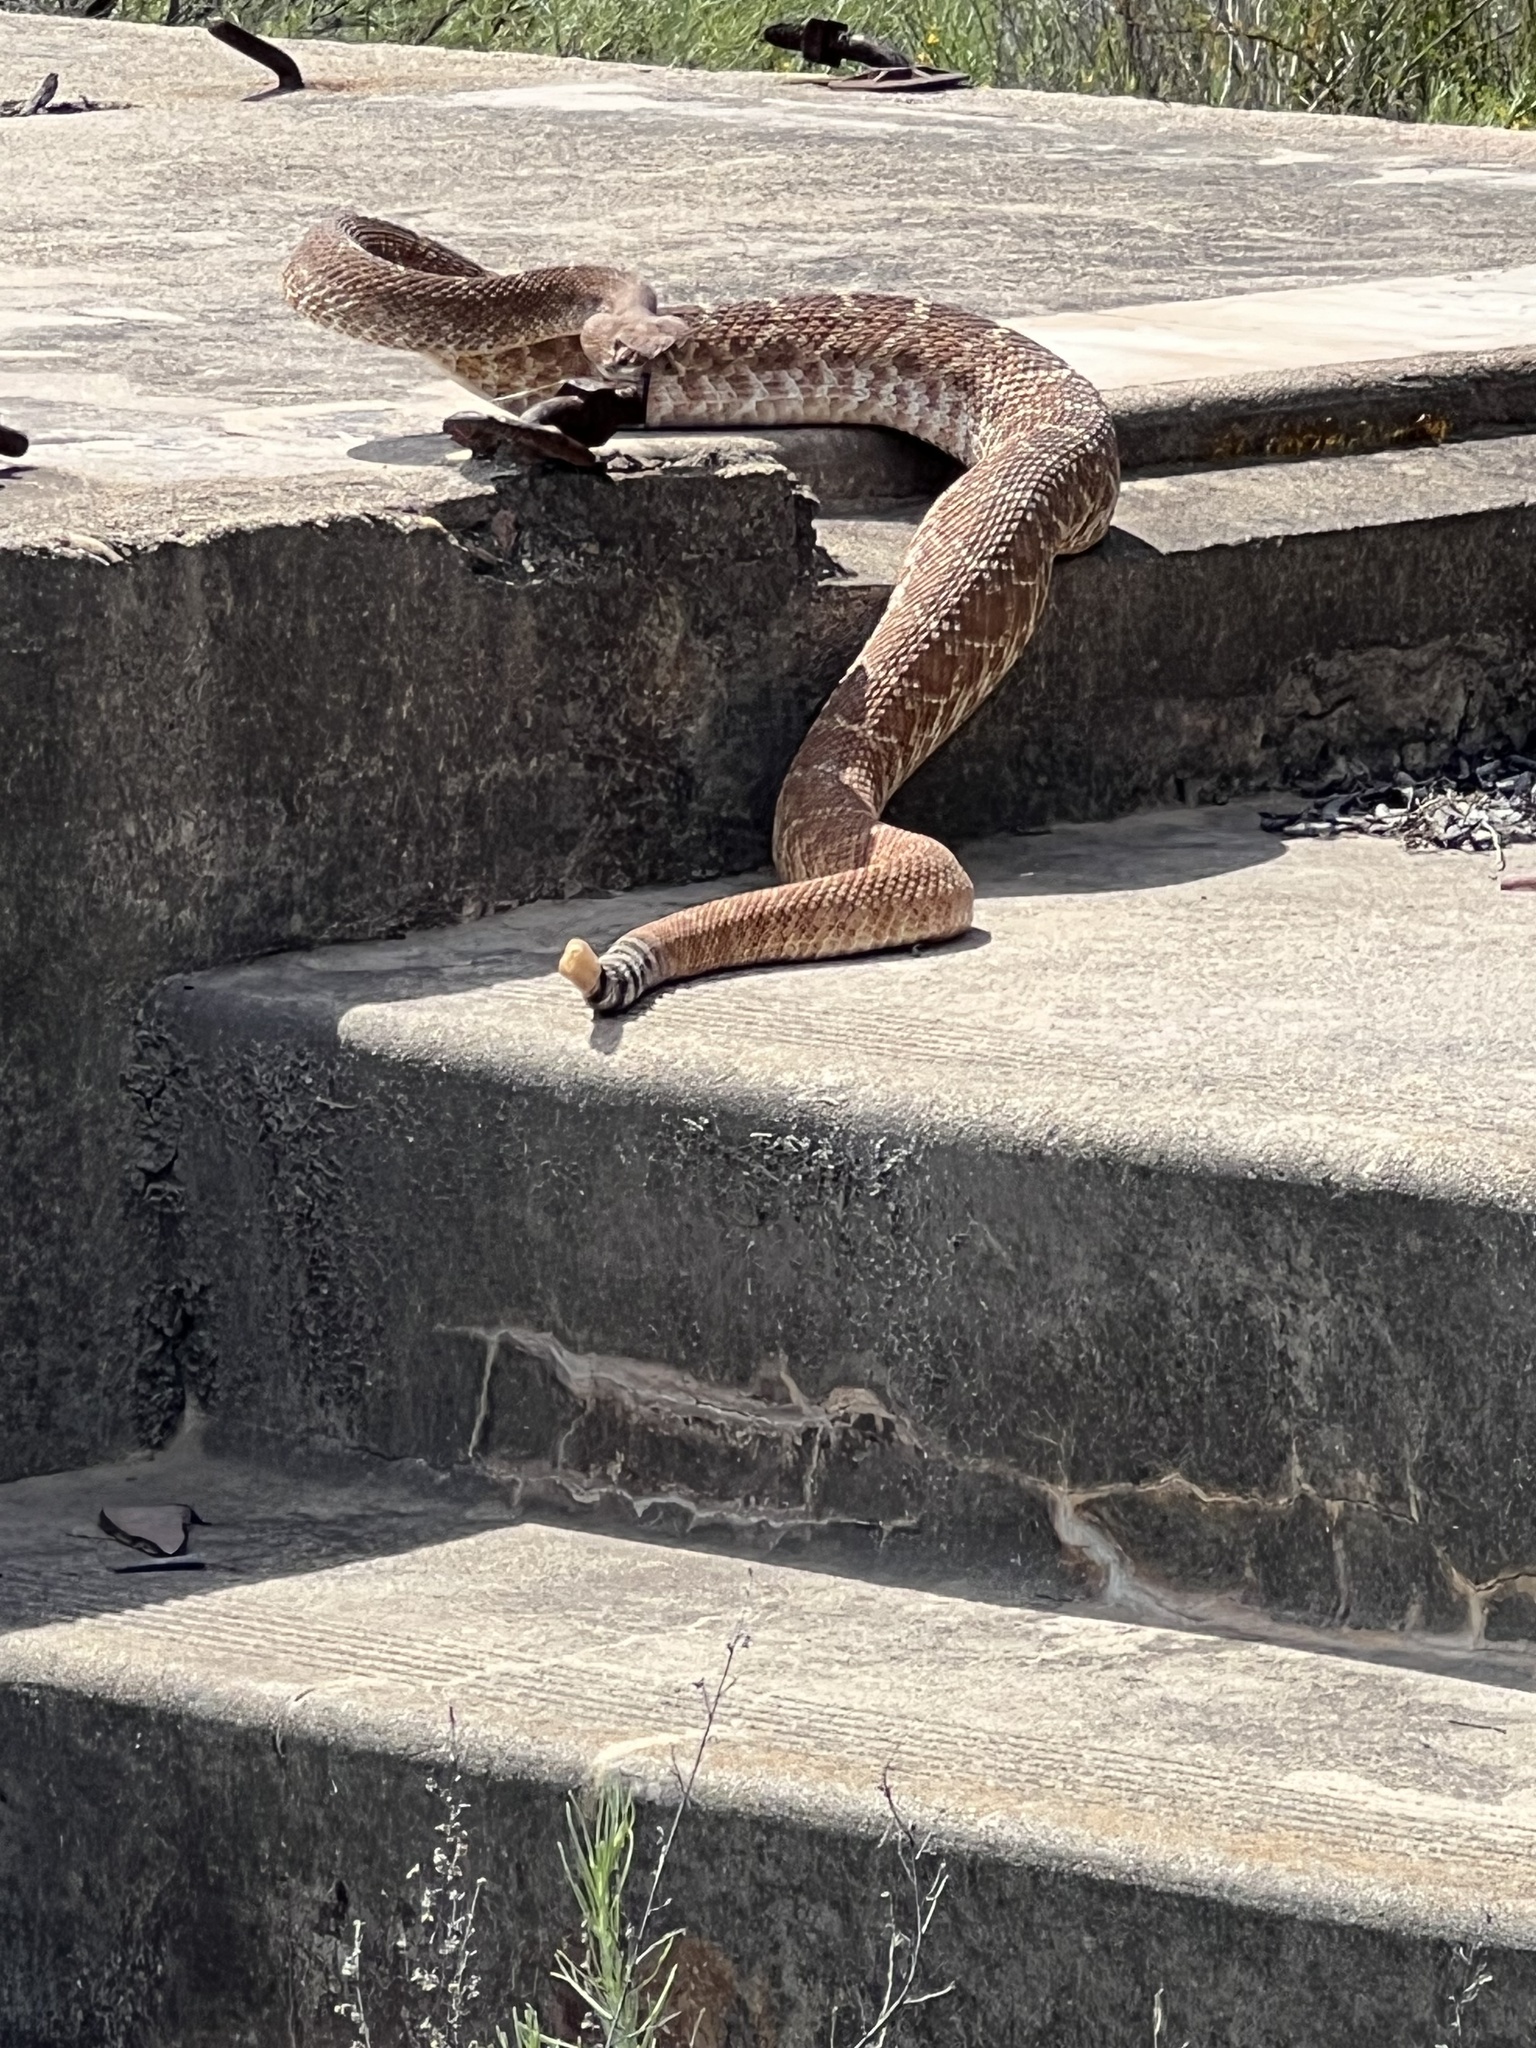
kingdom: Animalia
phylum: Chordata
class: Squamata
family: Viperidae
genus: Crotalus
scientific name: Crotalus ruber
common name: Red diamond rattlesnake
